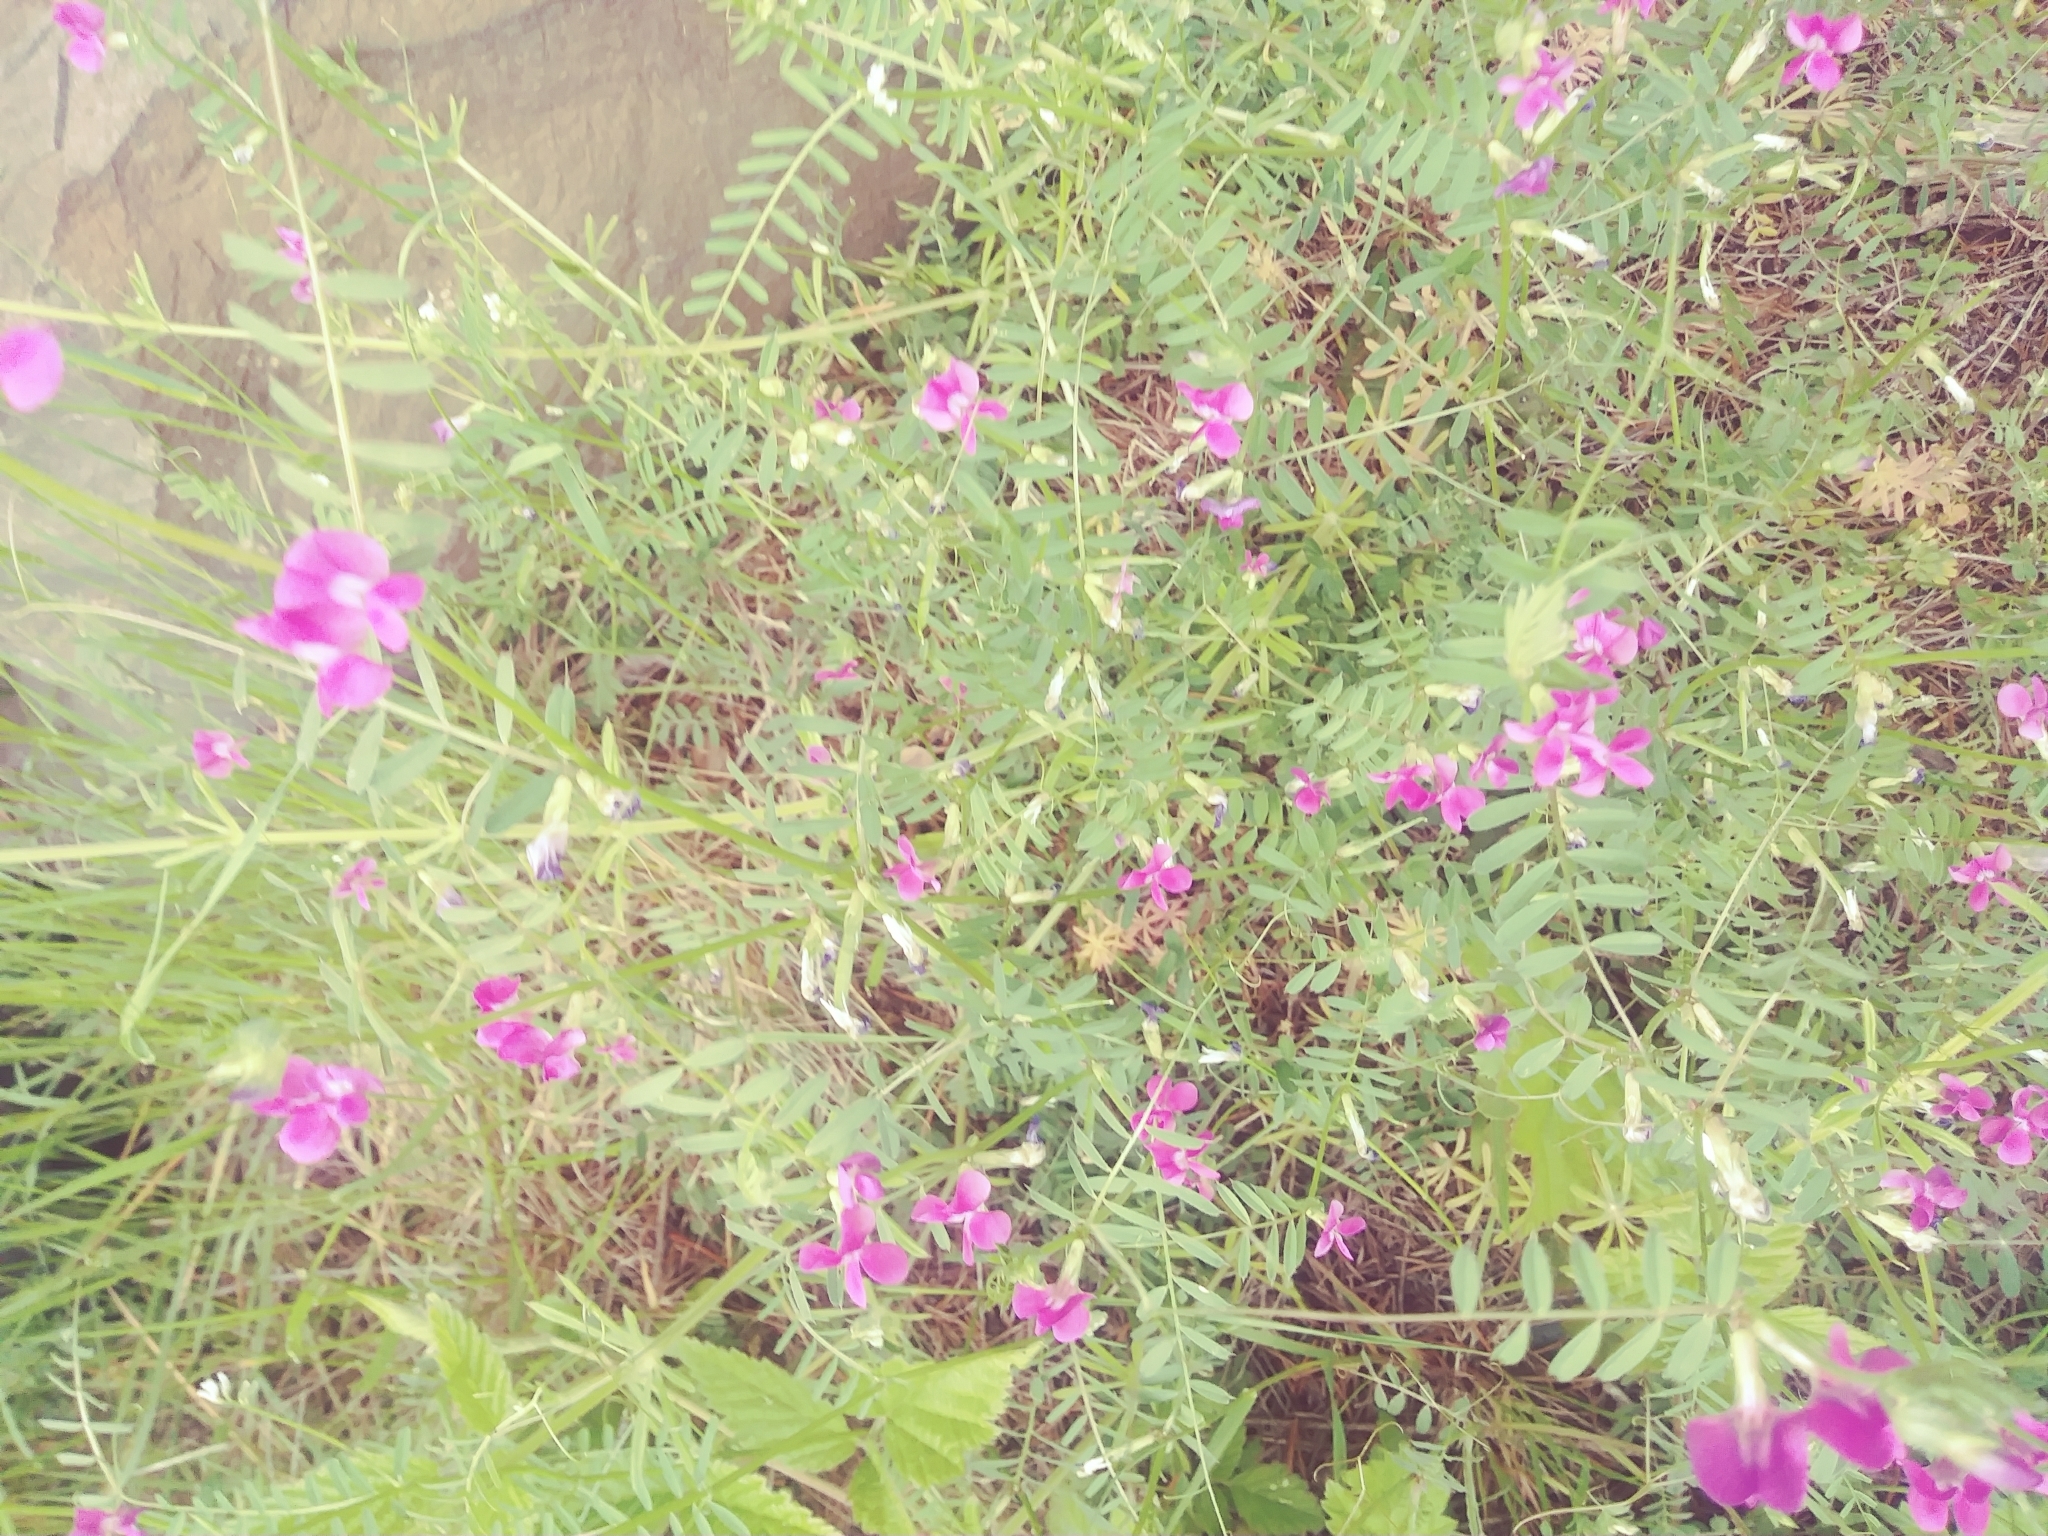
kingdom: Plantae
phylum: Tracheophyta
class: Magnoliopsida
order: Fabales
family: Fabaceae
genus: Vicia
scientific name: Vicia sativa
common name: Garden vetch
